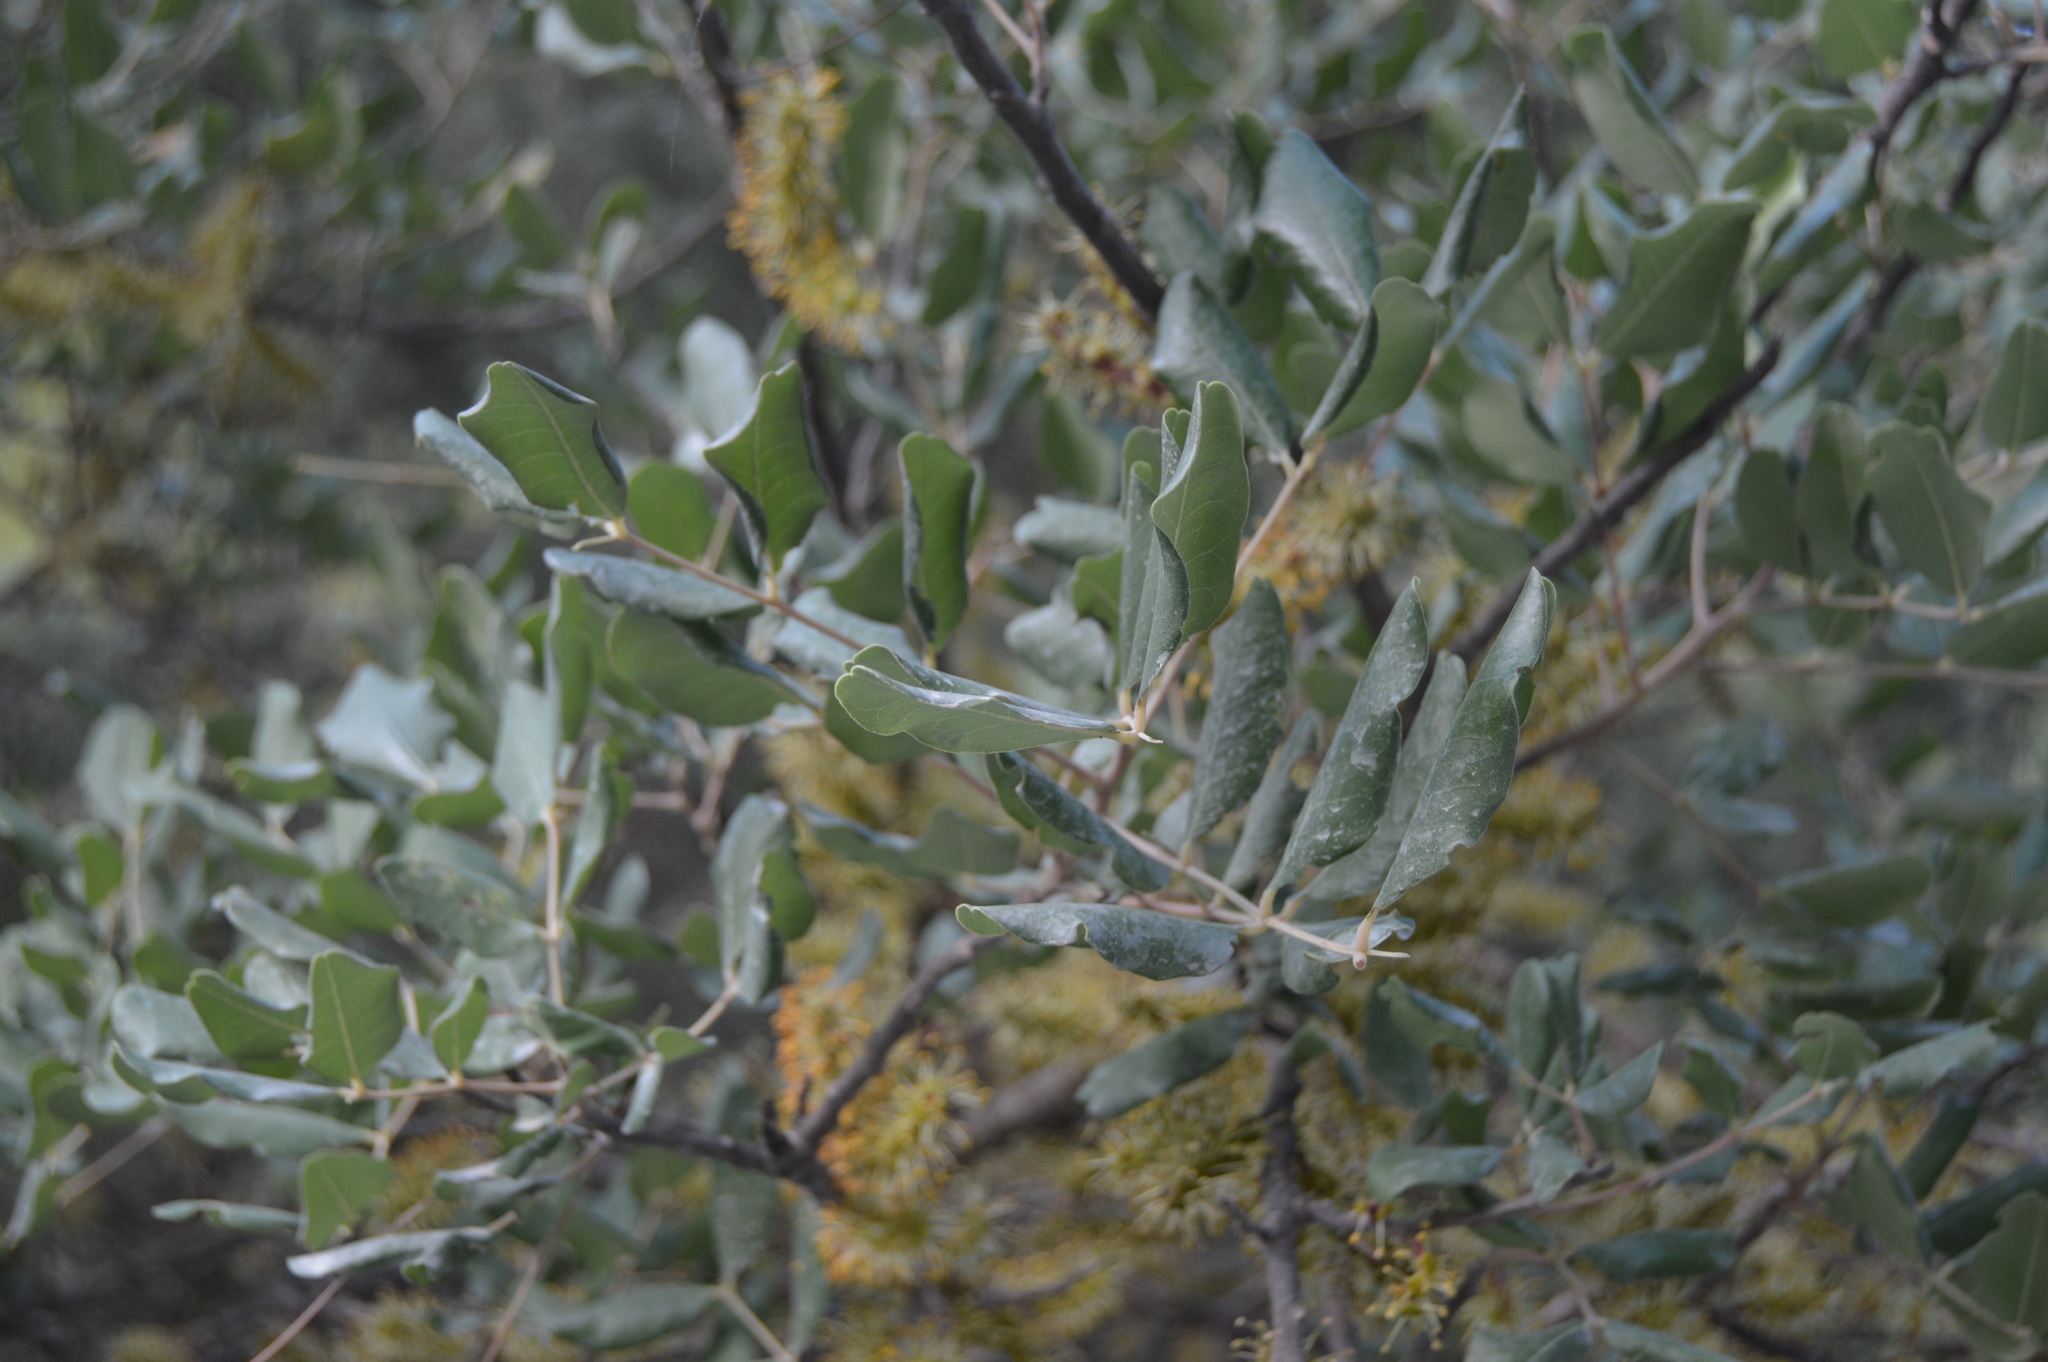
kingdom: Plantae
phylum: Tracheophyta
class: Magnoliopsida
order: Fabales
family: Fabaceae
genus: Ceratonia
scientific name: Ceratonia siliqua
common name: Carob
